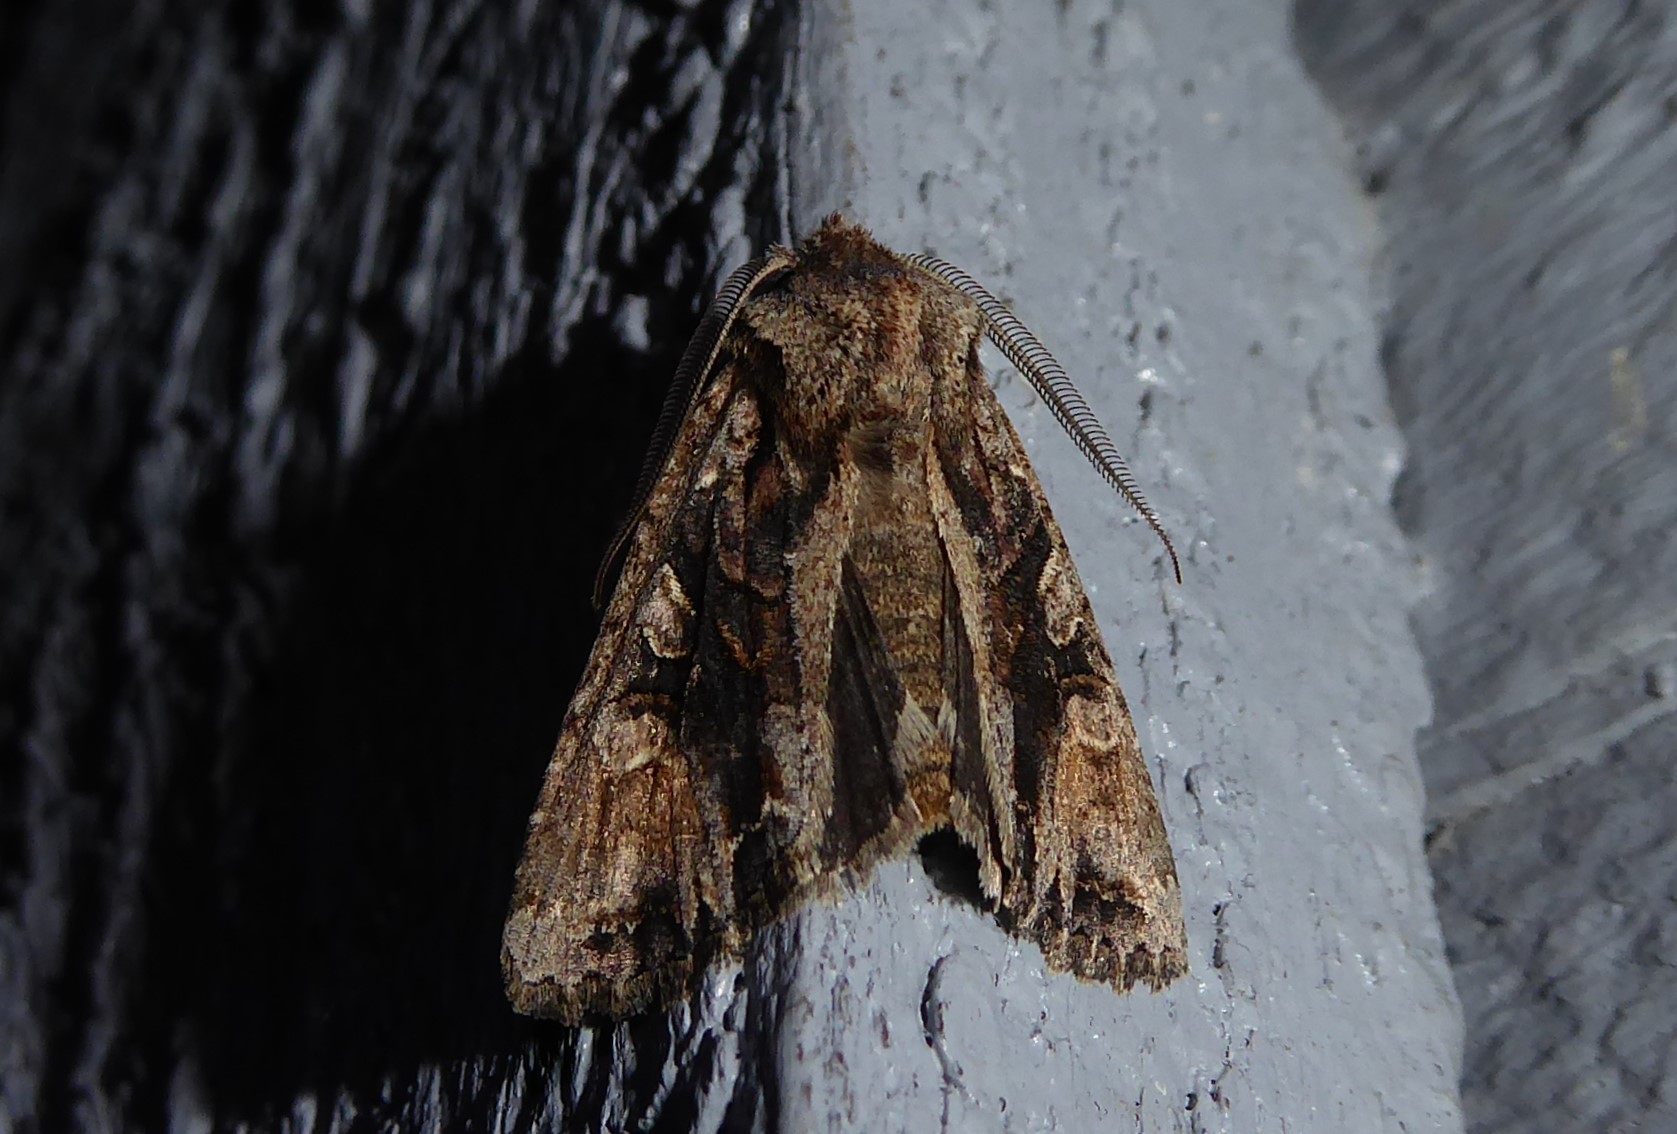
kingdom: Animalia
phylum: Arthropoda
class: Insecta
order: Lepidoptera
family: Noctuidae
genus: Ichneutica
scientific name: Ichneutica
